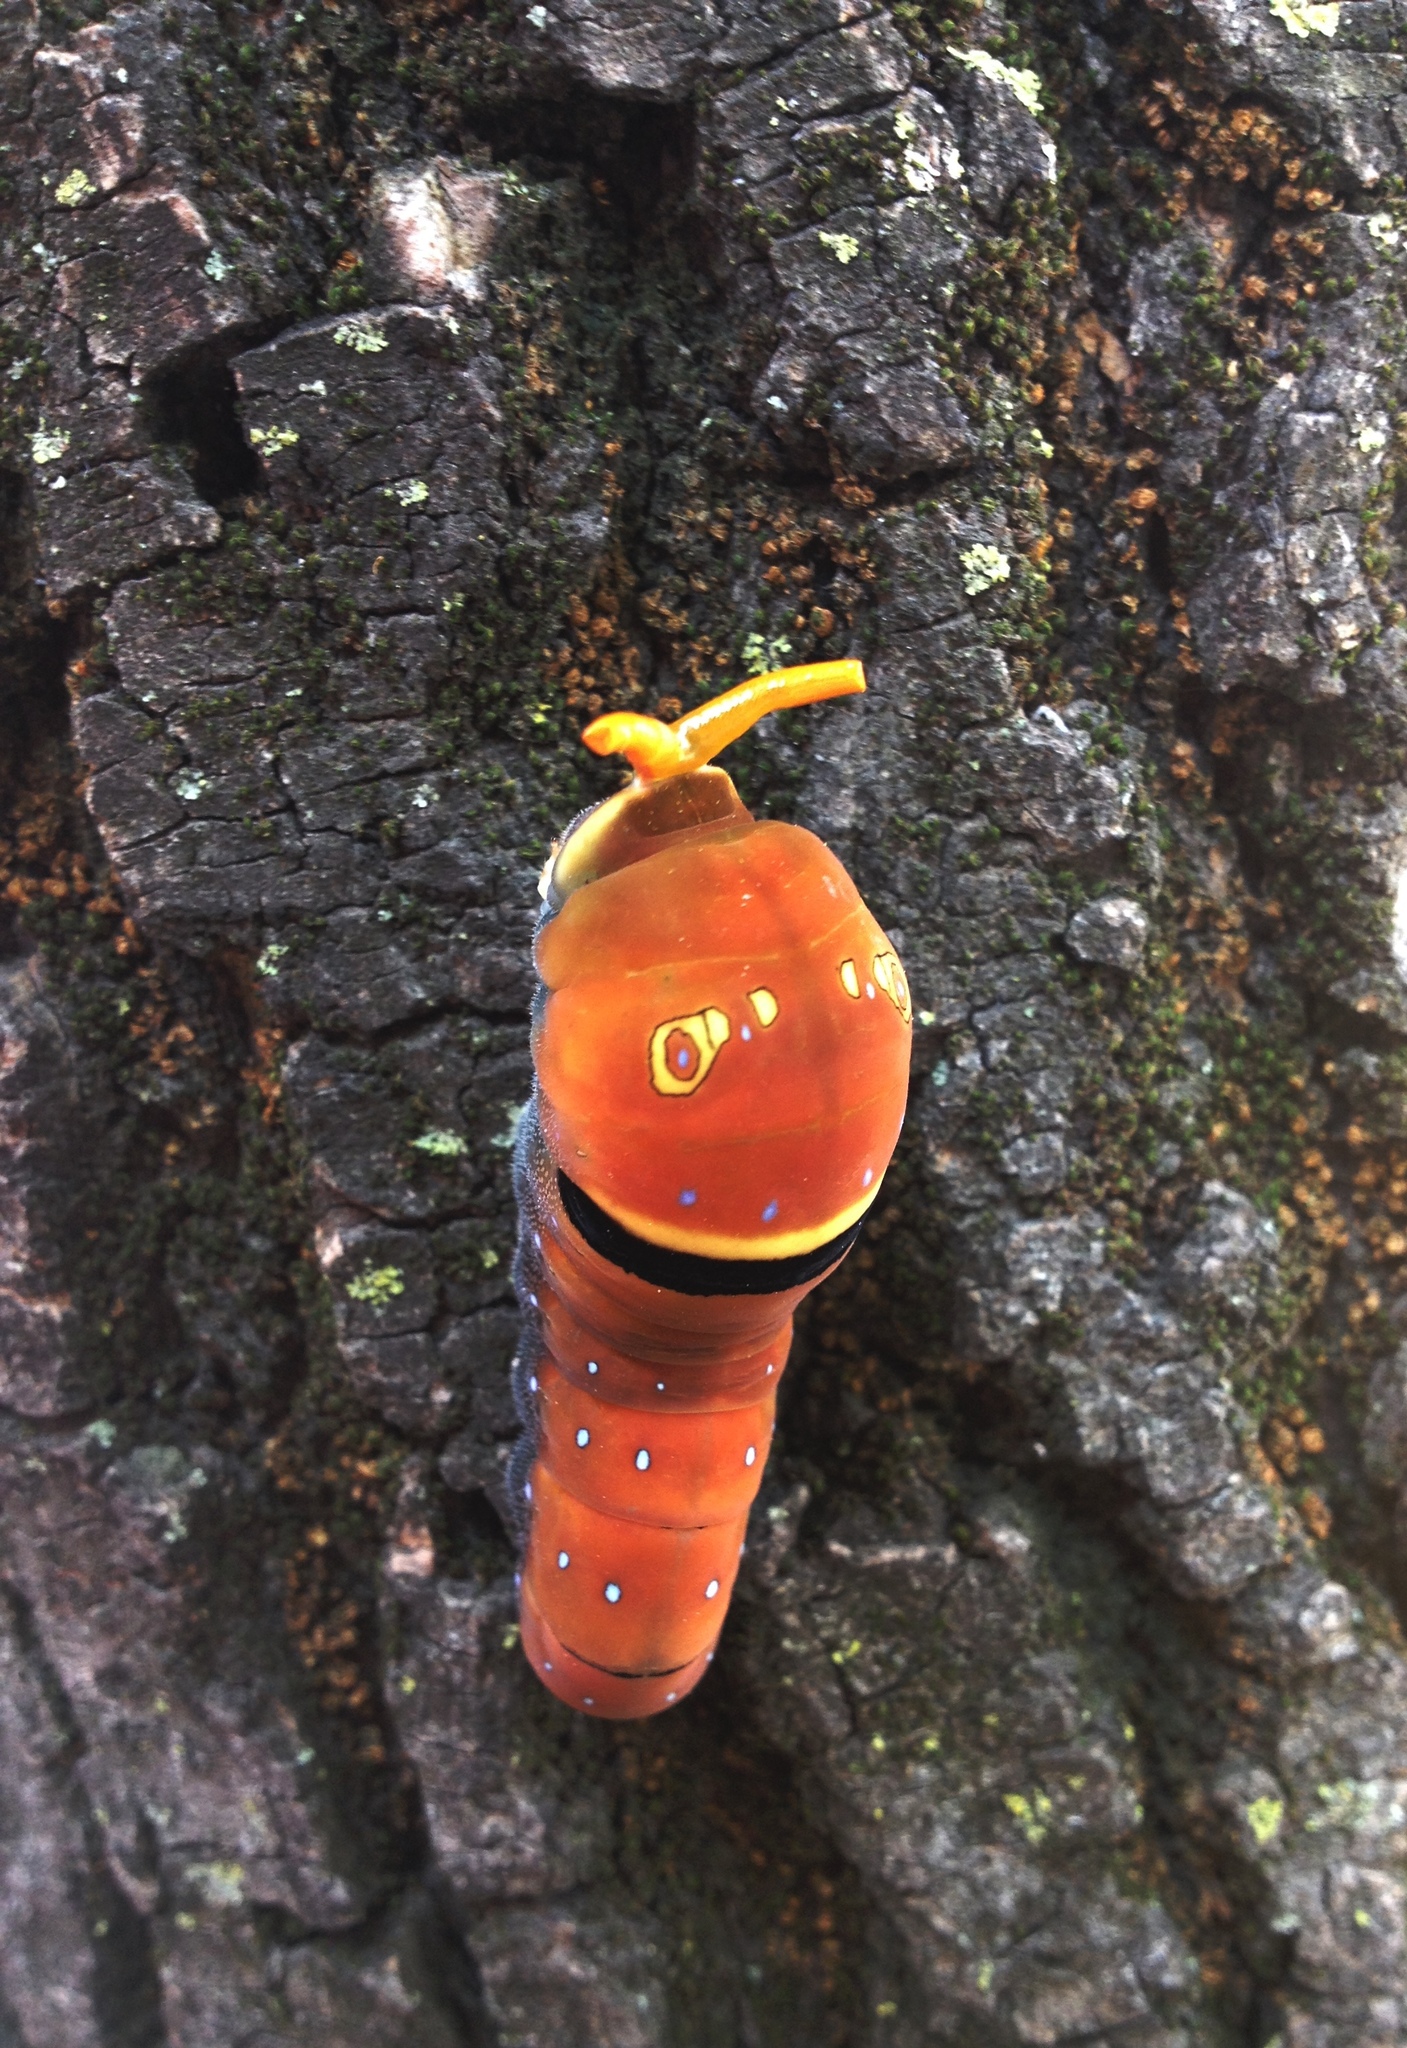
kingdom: Animalia
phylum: Arthropoda
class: Insecta
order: Lepidoptera
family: Papilionidae
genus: Papilio
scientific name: Papilio multicaudata
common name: Two-tailed tiger swallowtail
